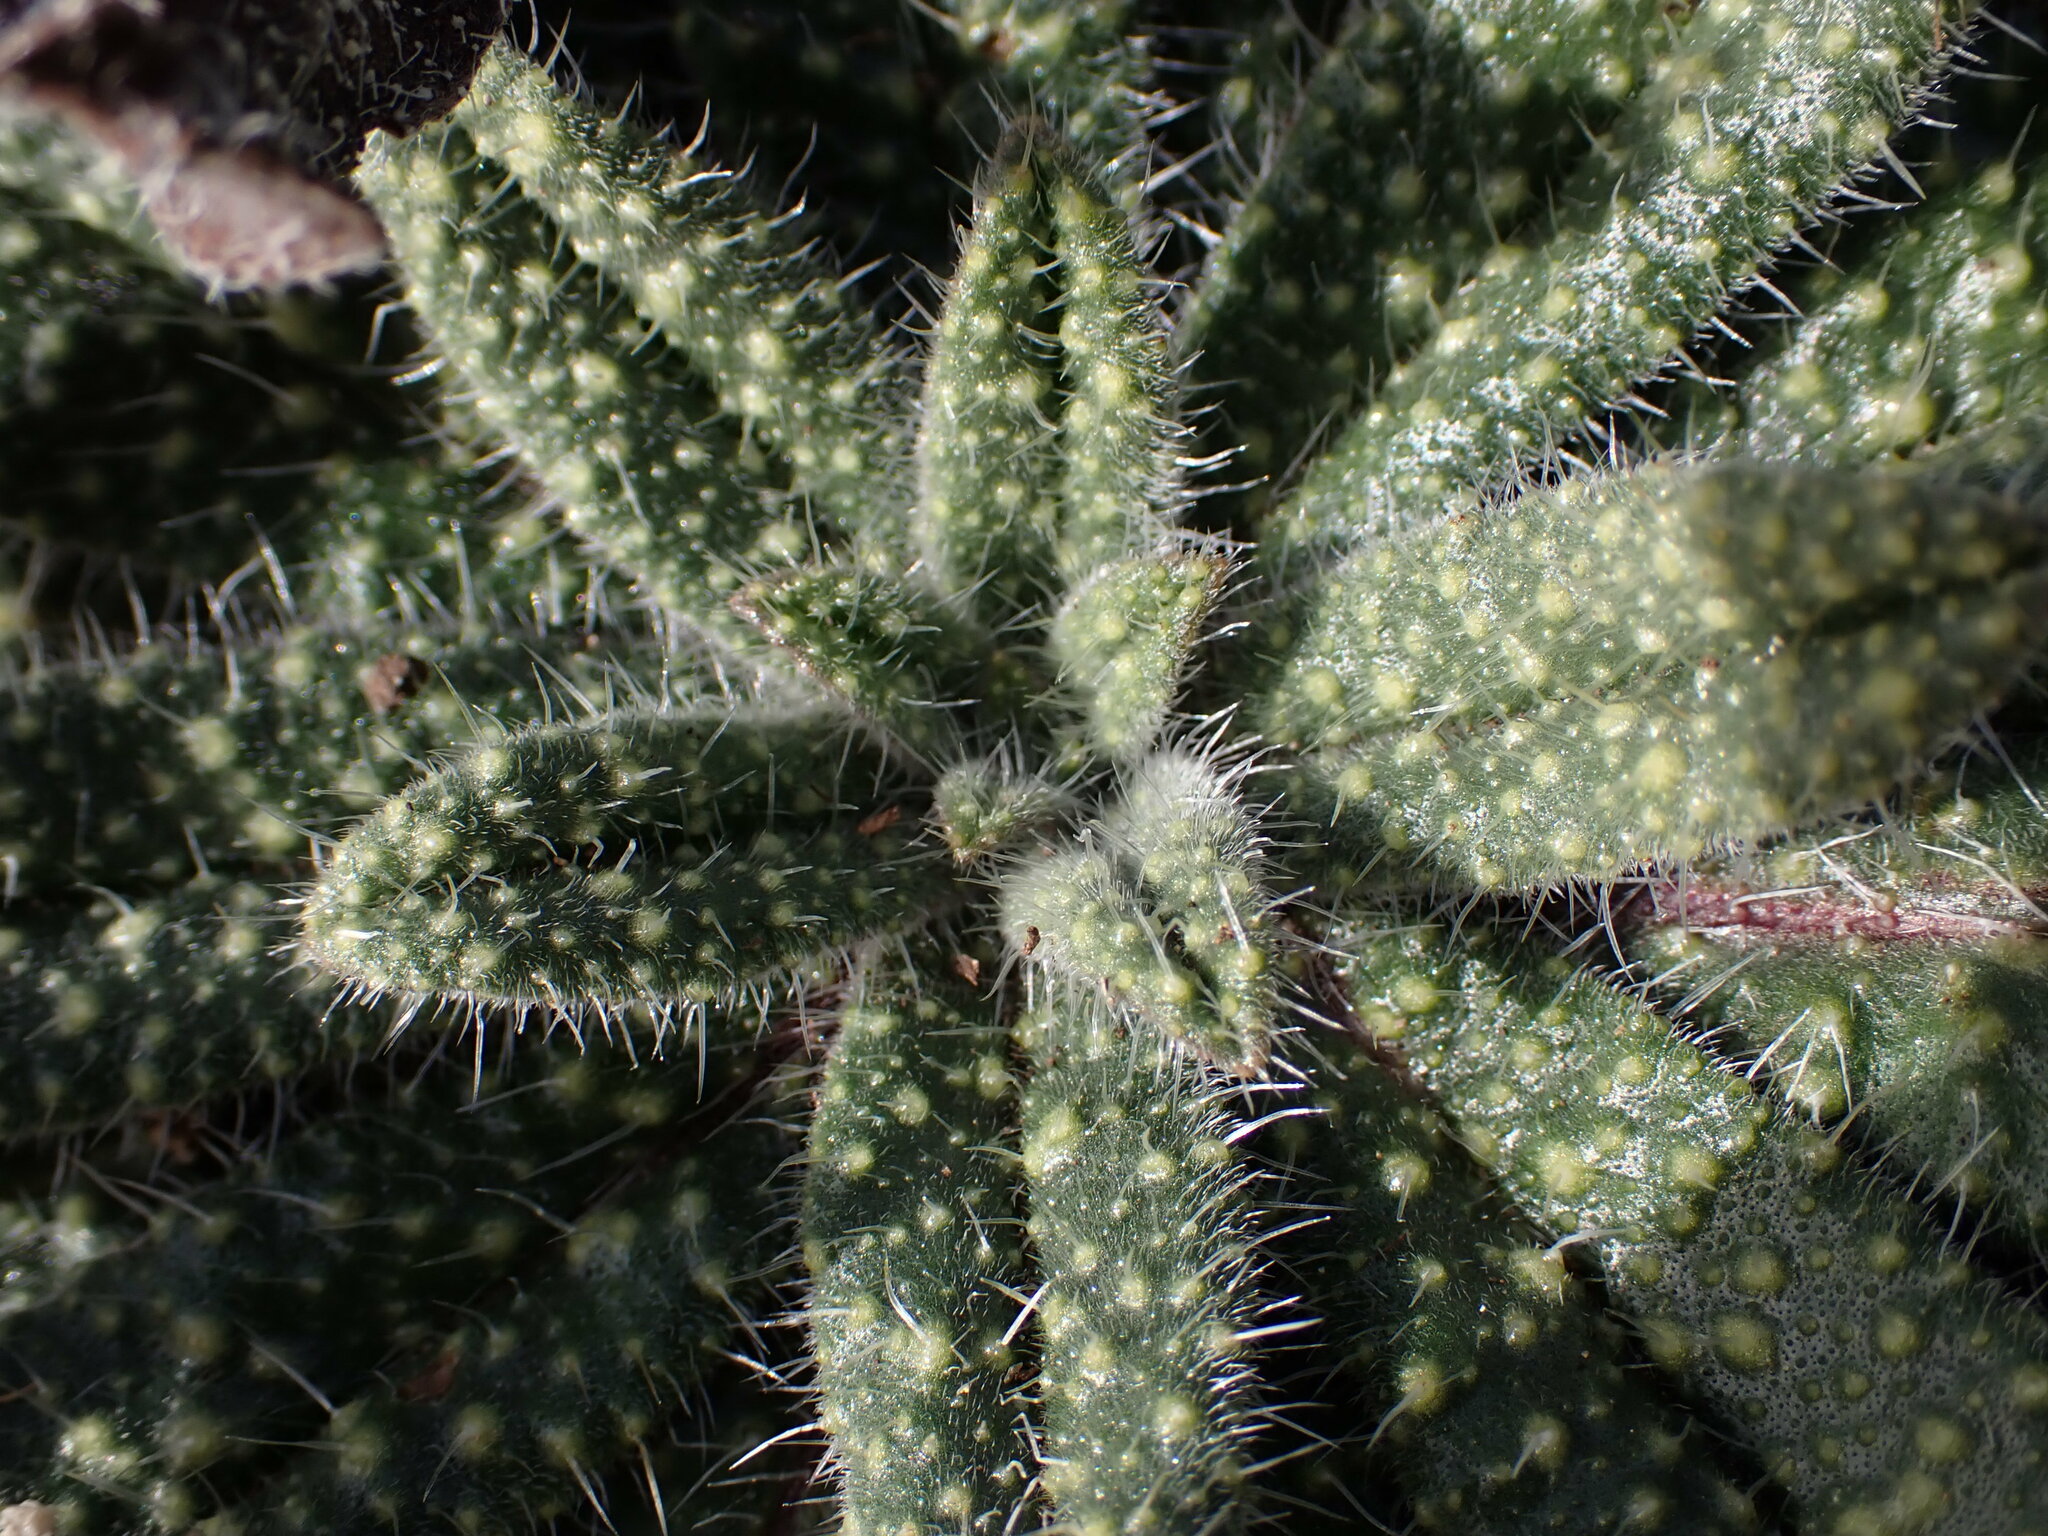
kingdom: Plantae
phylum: Tracheophyta
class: Magnoliopsida
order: Boraginales
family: Boraginaceae
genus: Echium
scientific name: Echium vulgare
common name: Common viper's bugloss
